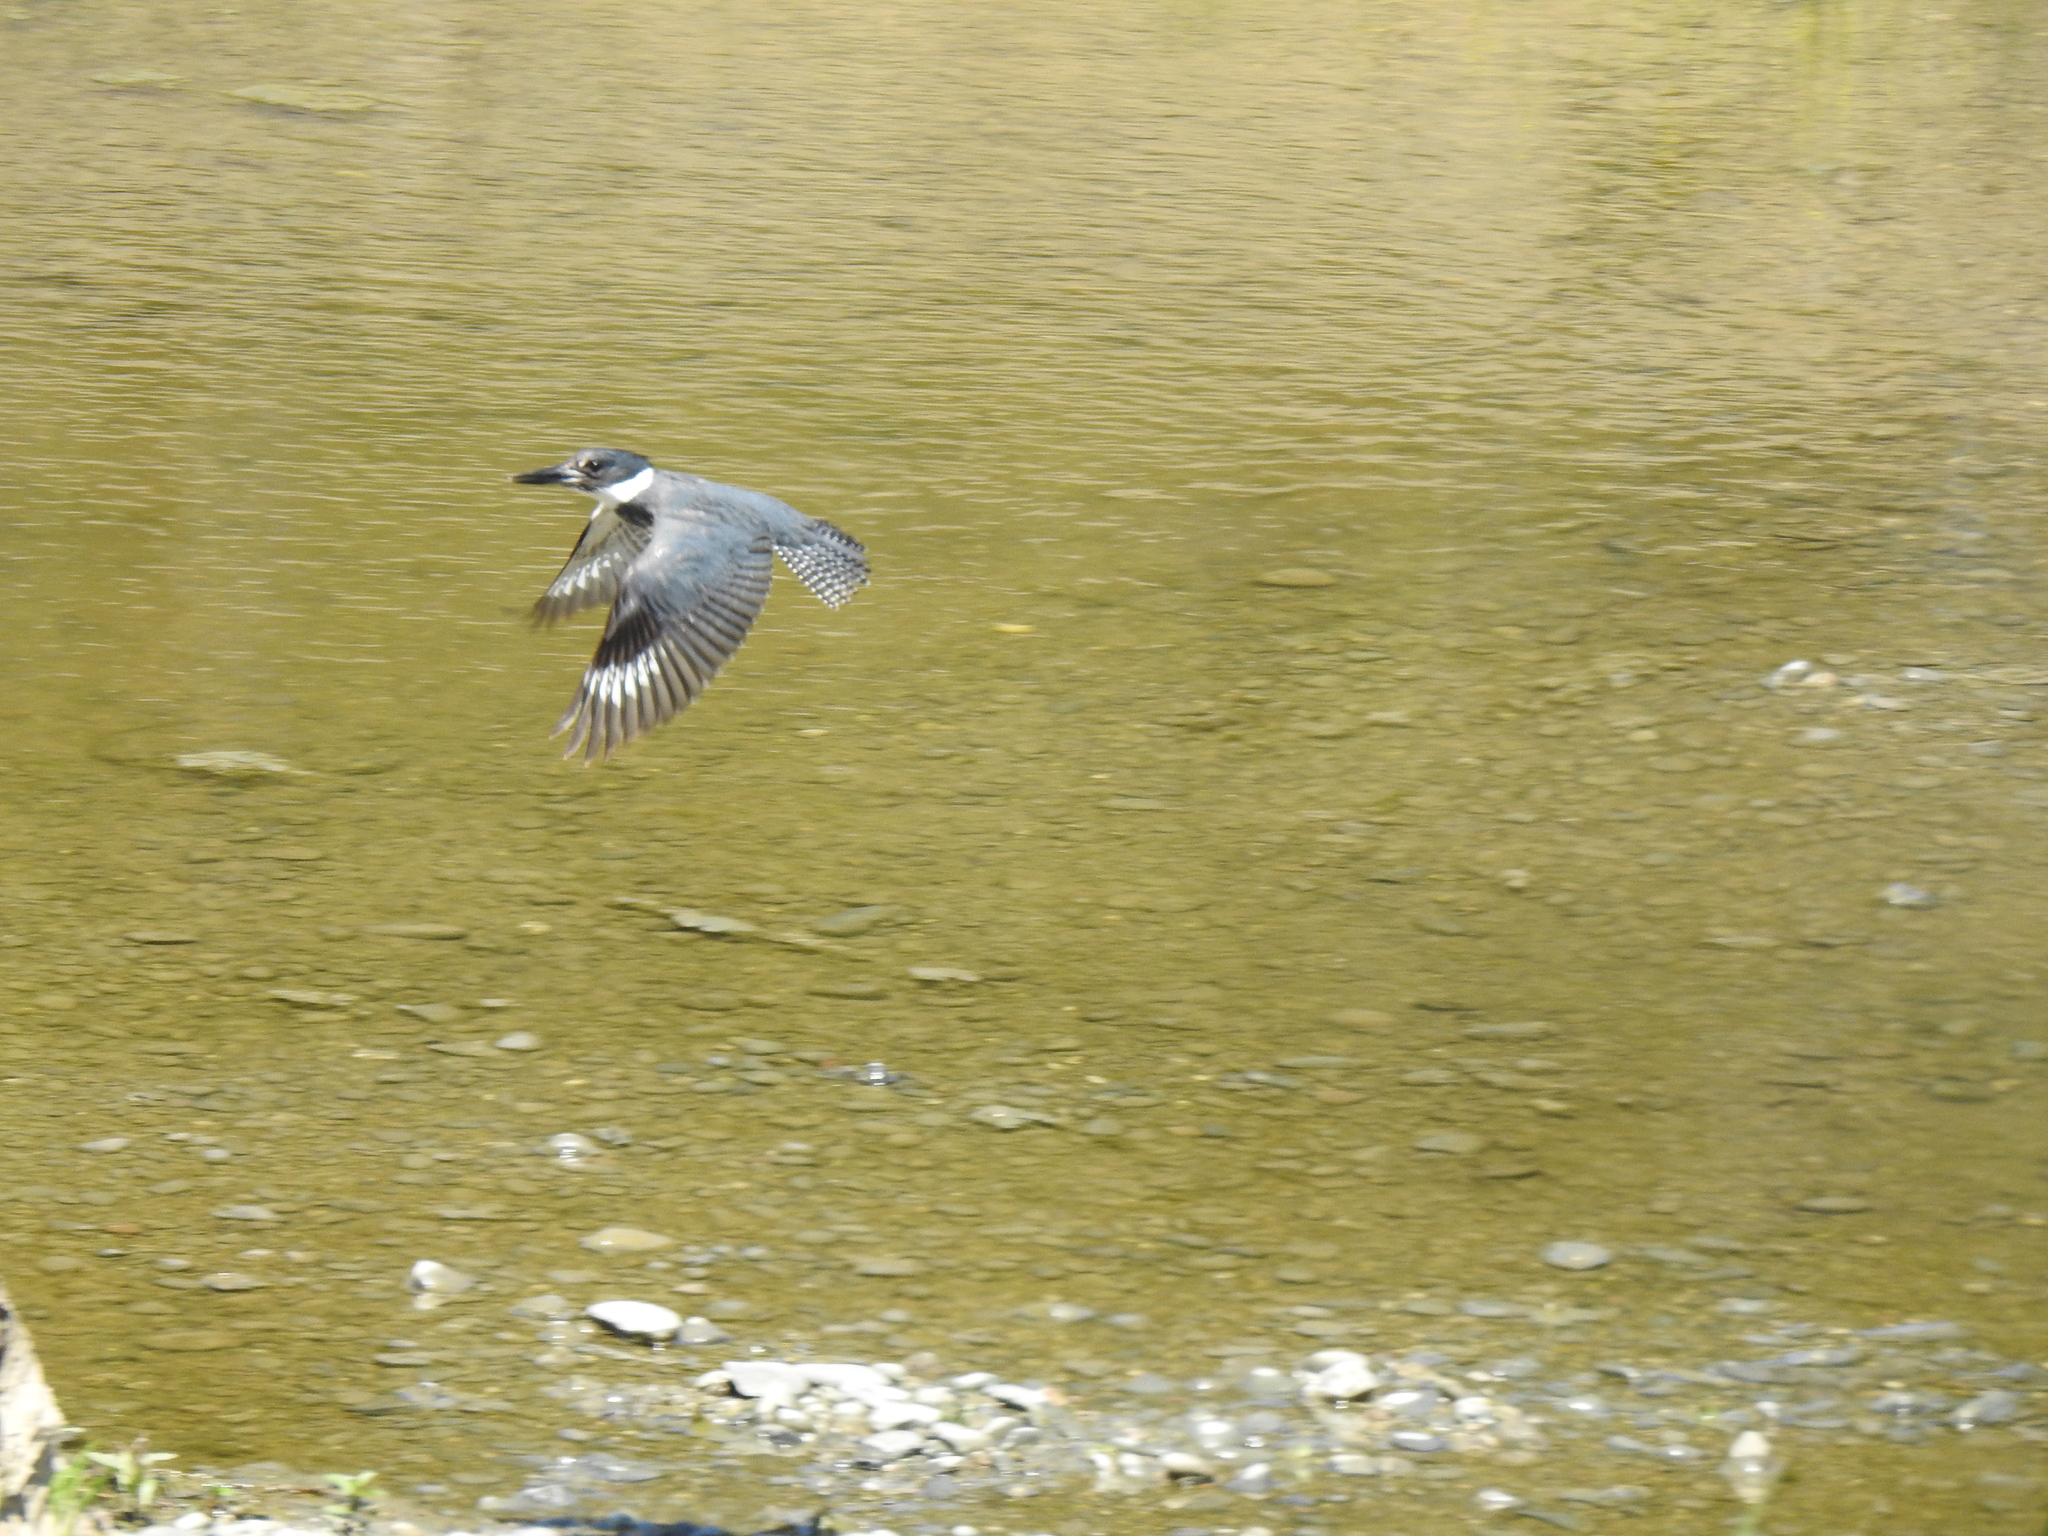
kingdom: Animalia
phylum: Chordata
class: Aves
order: Coraciiformes
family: Alcedinidae
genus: Megaceryle
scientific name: Megaceryle alcyon
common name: Belted kingfisher
